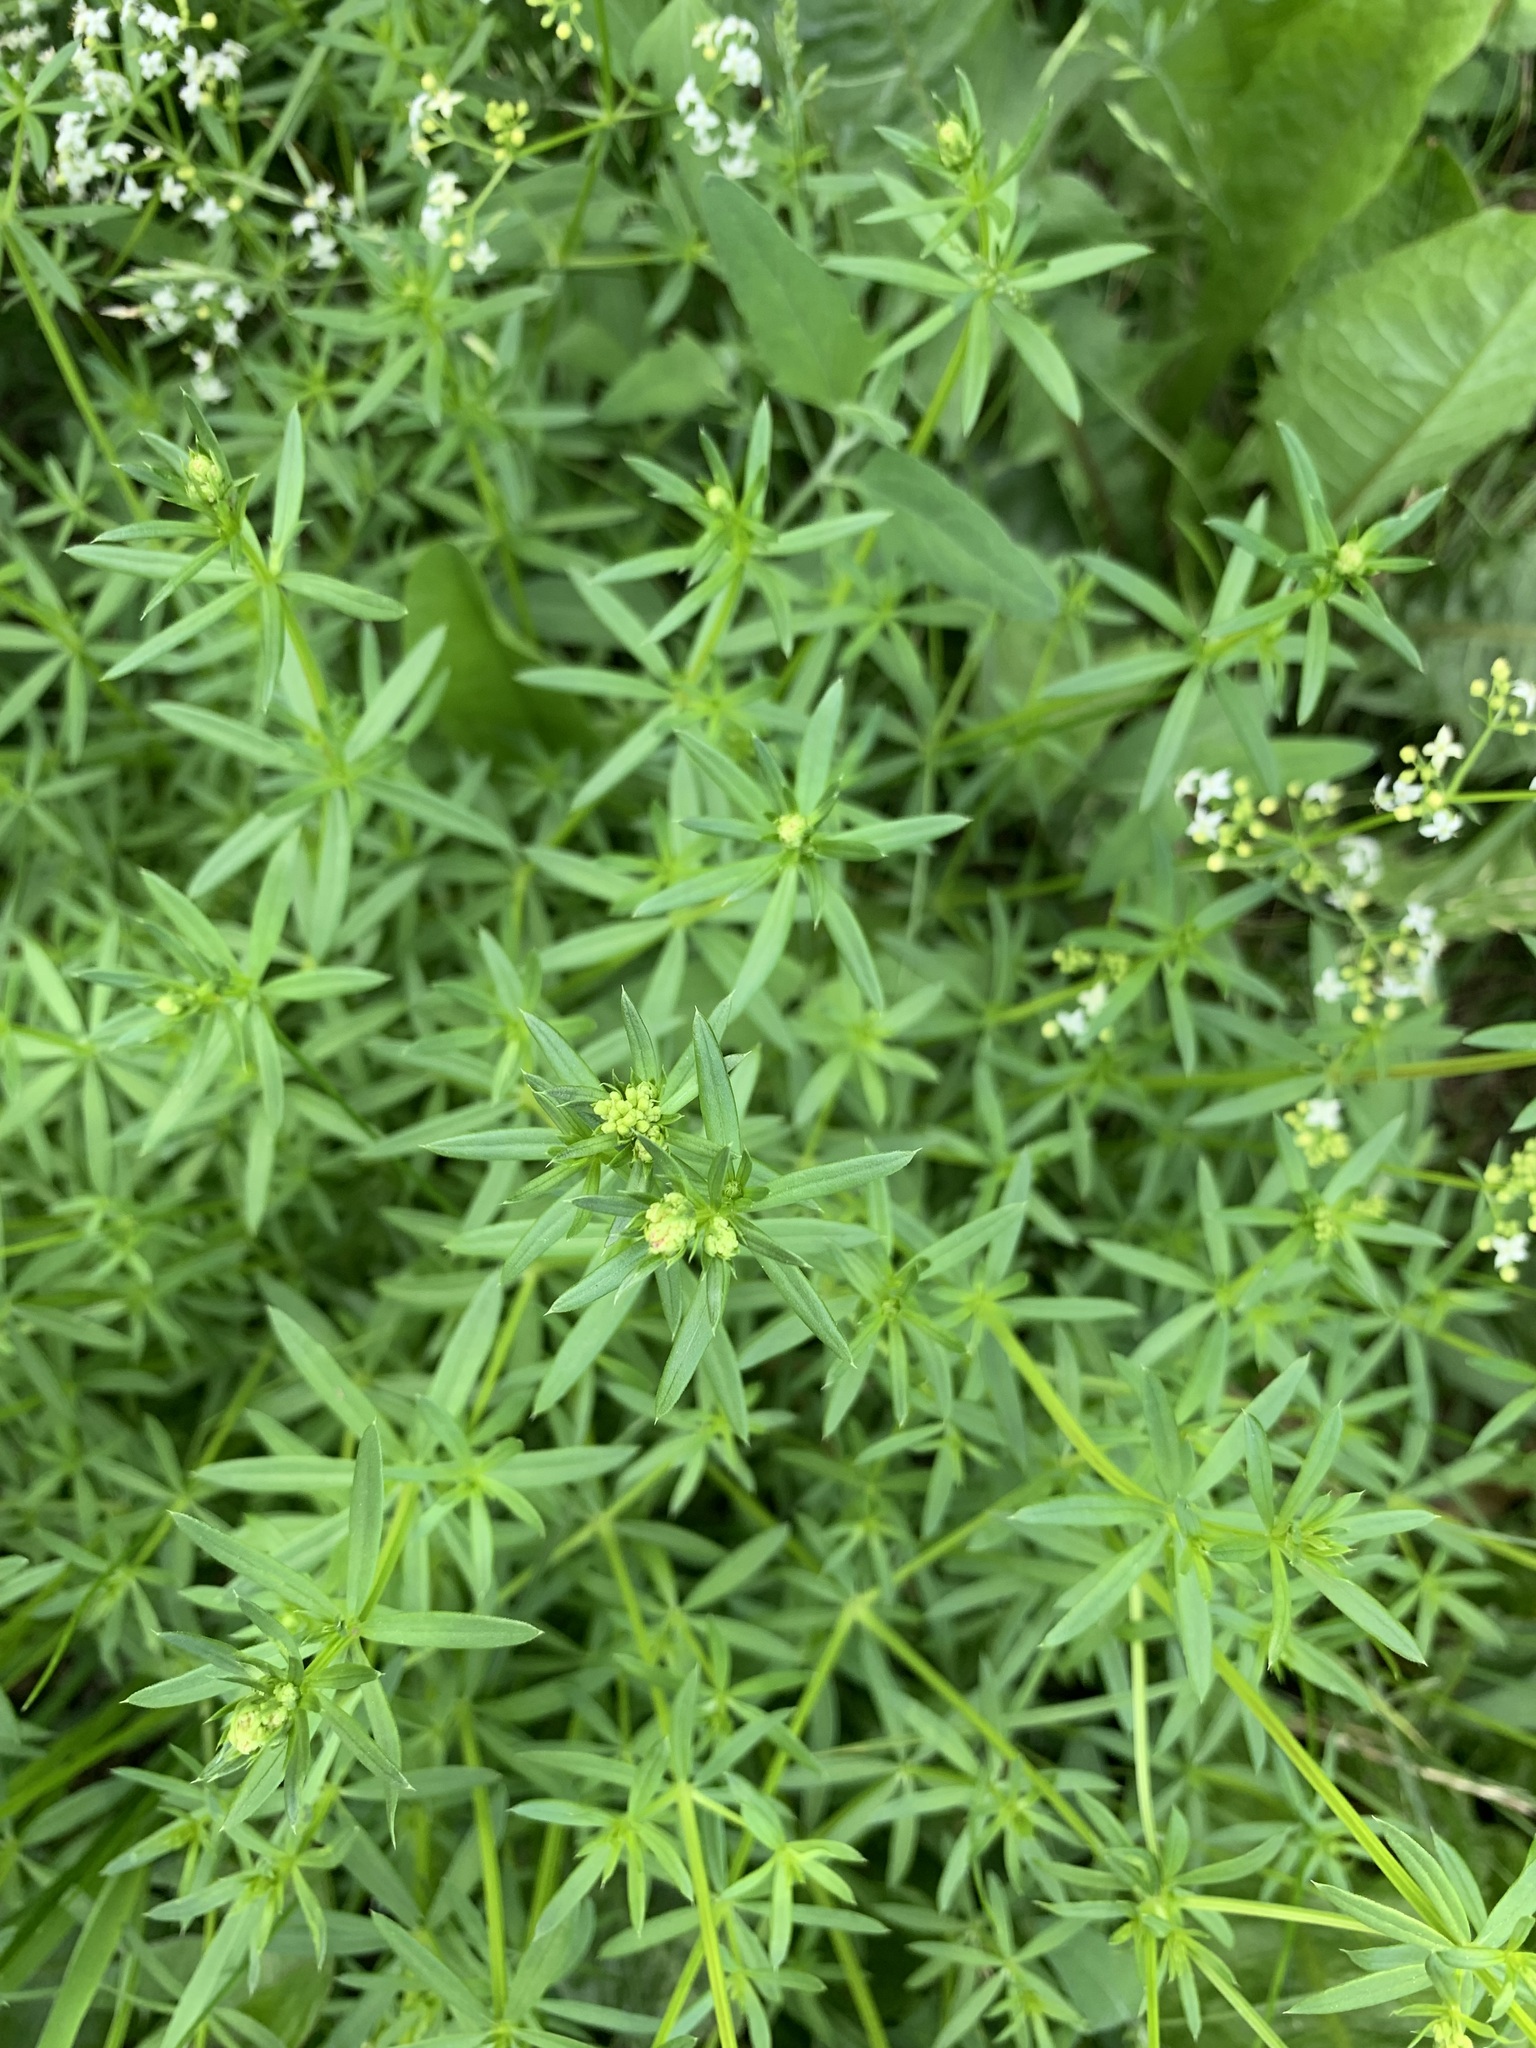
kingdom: Plantae
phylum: Tracheophyta
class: Magnoliopsida
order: Gentianales
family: Rubiaceae
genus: Galium
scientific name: Galium mollugo
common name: Hedge bedstraw
